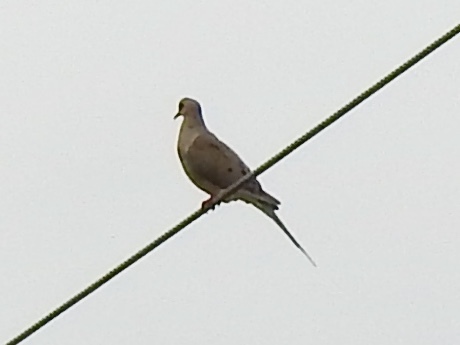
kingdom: Animalia
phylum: Chordata
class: Aves
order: Columbiformes
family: Columbidae
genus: Zenaida
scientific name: Zenaida macroura
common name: Mourning dove
